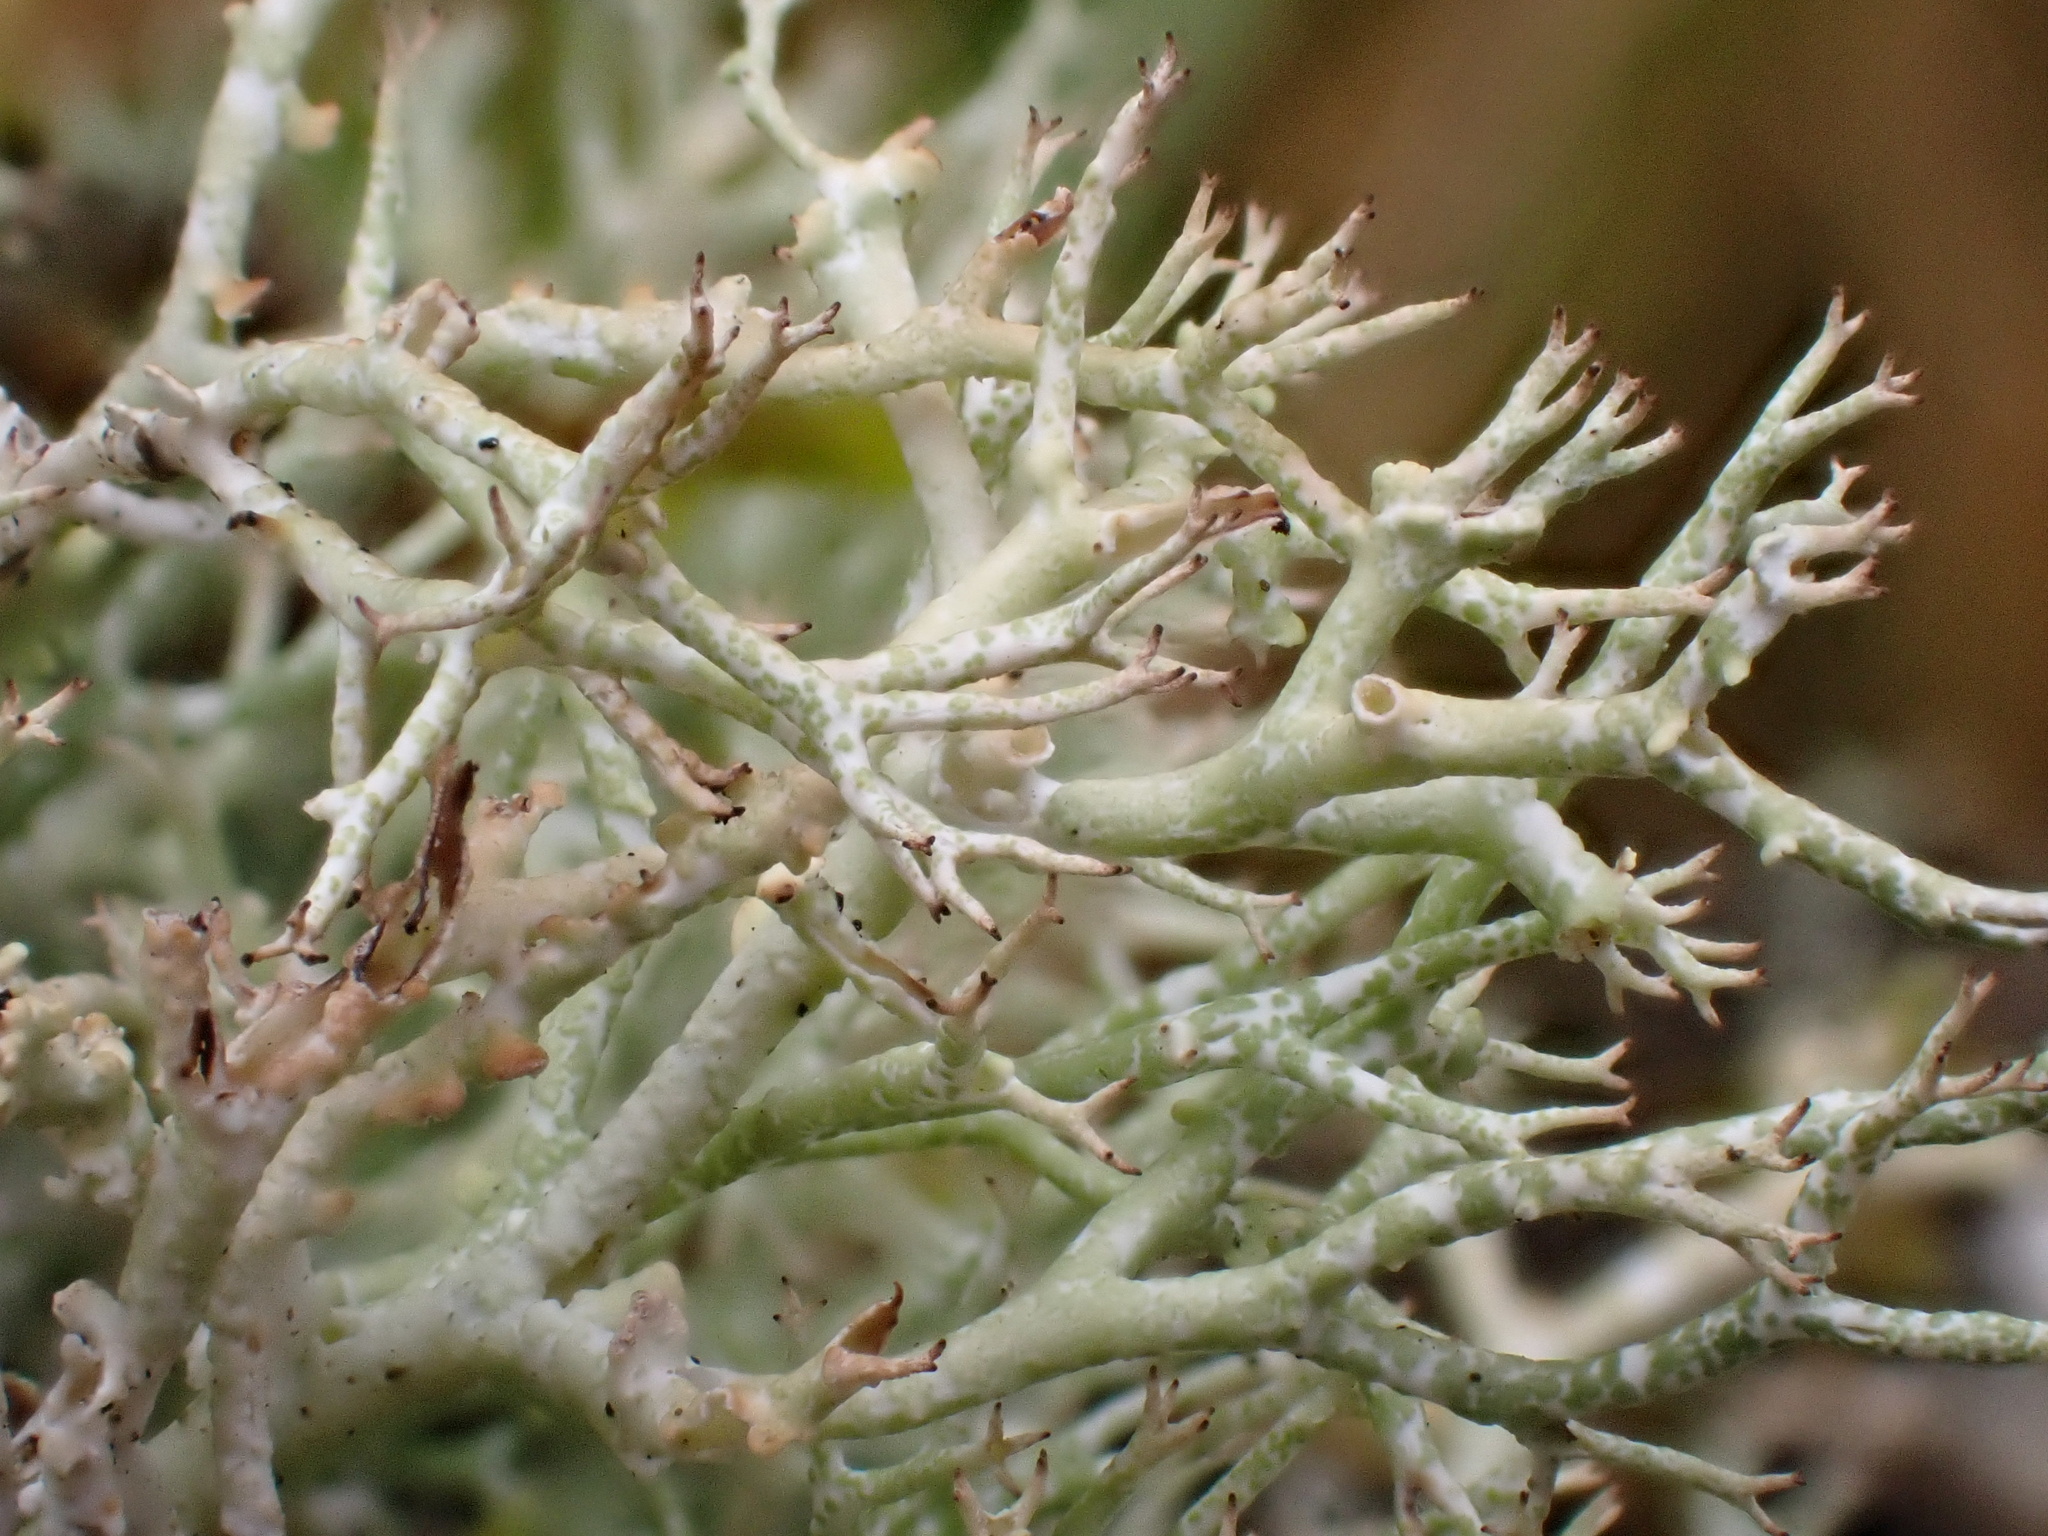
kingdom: Fungi
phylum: Ascomycota
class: Lecanoromycetes
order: Lecanorales
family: Cladoniaceae
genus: Cladonia
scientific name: Cladonia rangiformis
